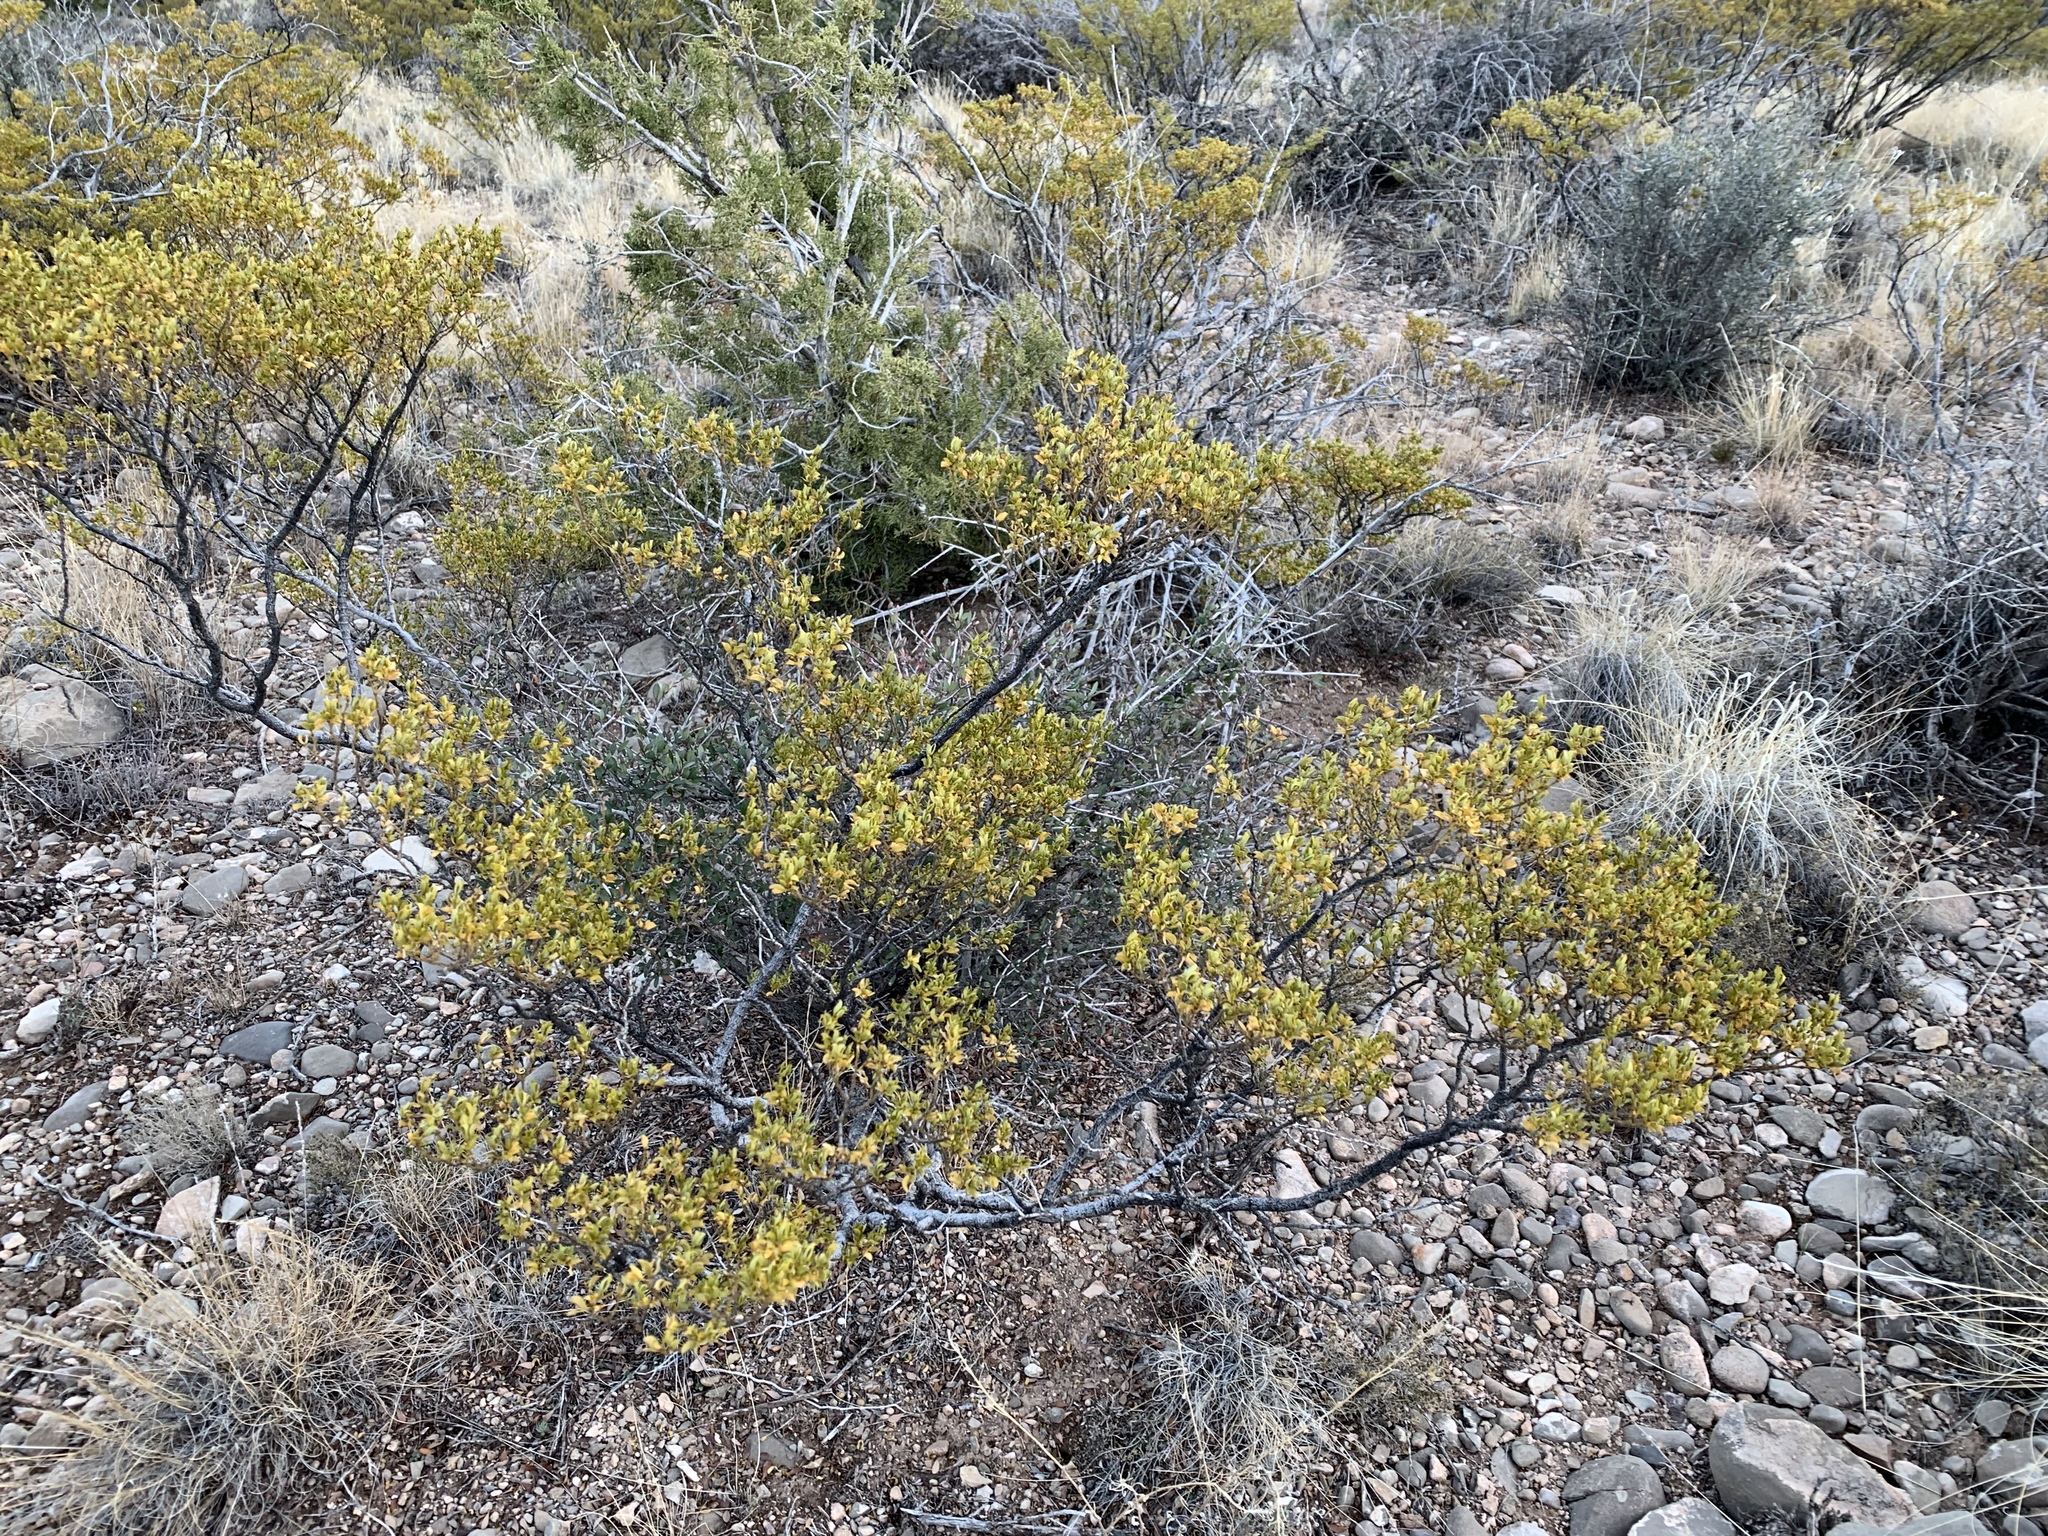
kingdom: Plantae
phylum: Tracheophyta
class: Magnoliopsida
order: Zygophyllales
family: Zygophyllaceae
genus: Larrea
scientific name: Larrea tridentata
